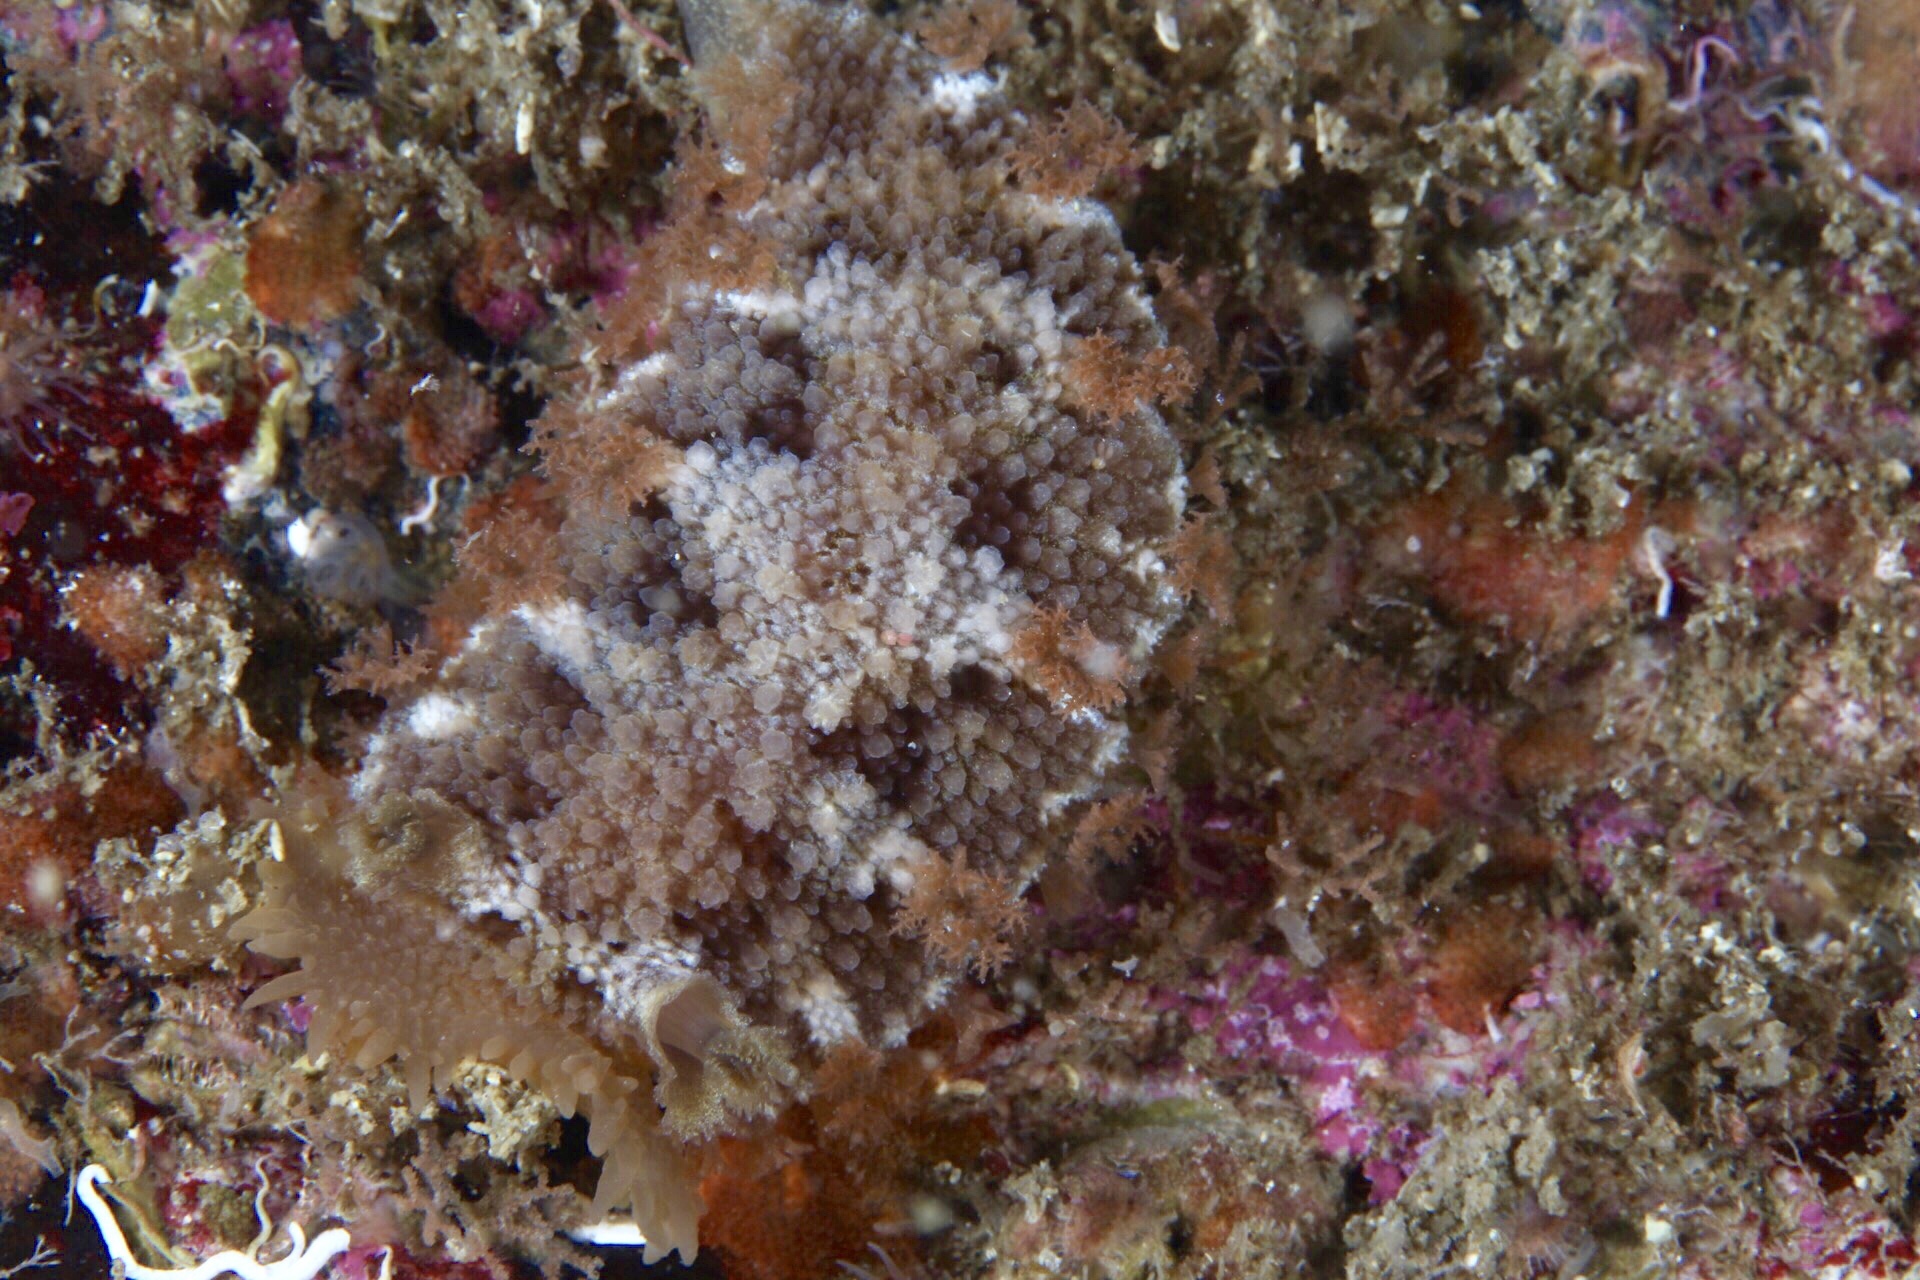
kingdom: Animalia
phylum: Mollusca
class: Gastropoda
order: Nudibranchia
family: Tritoniidae
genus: Tritonia
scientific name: Tritonia hombergii
